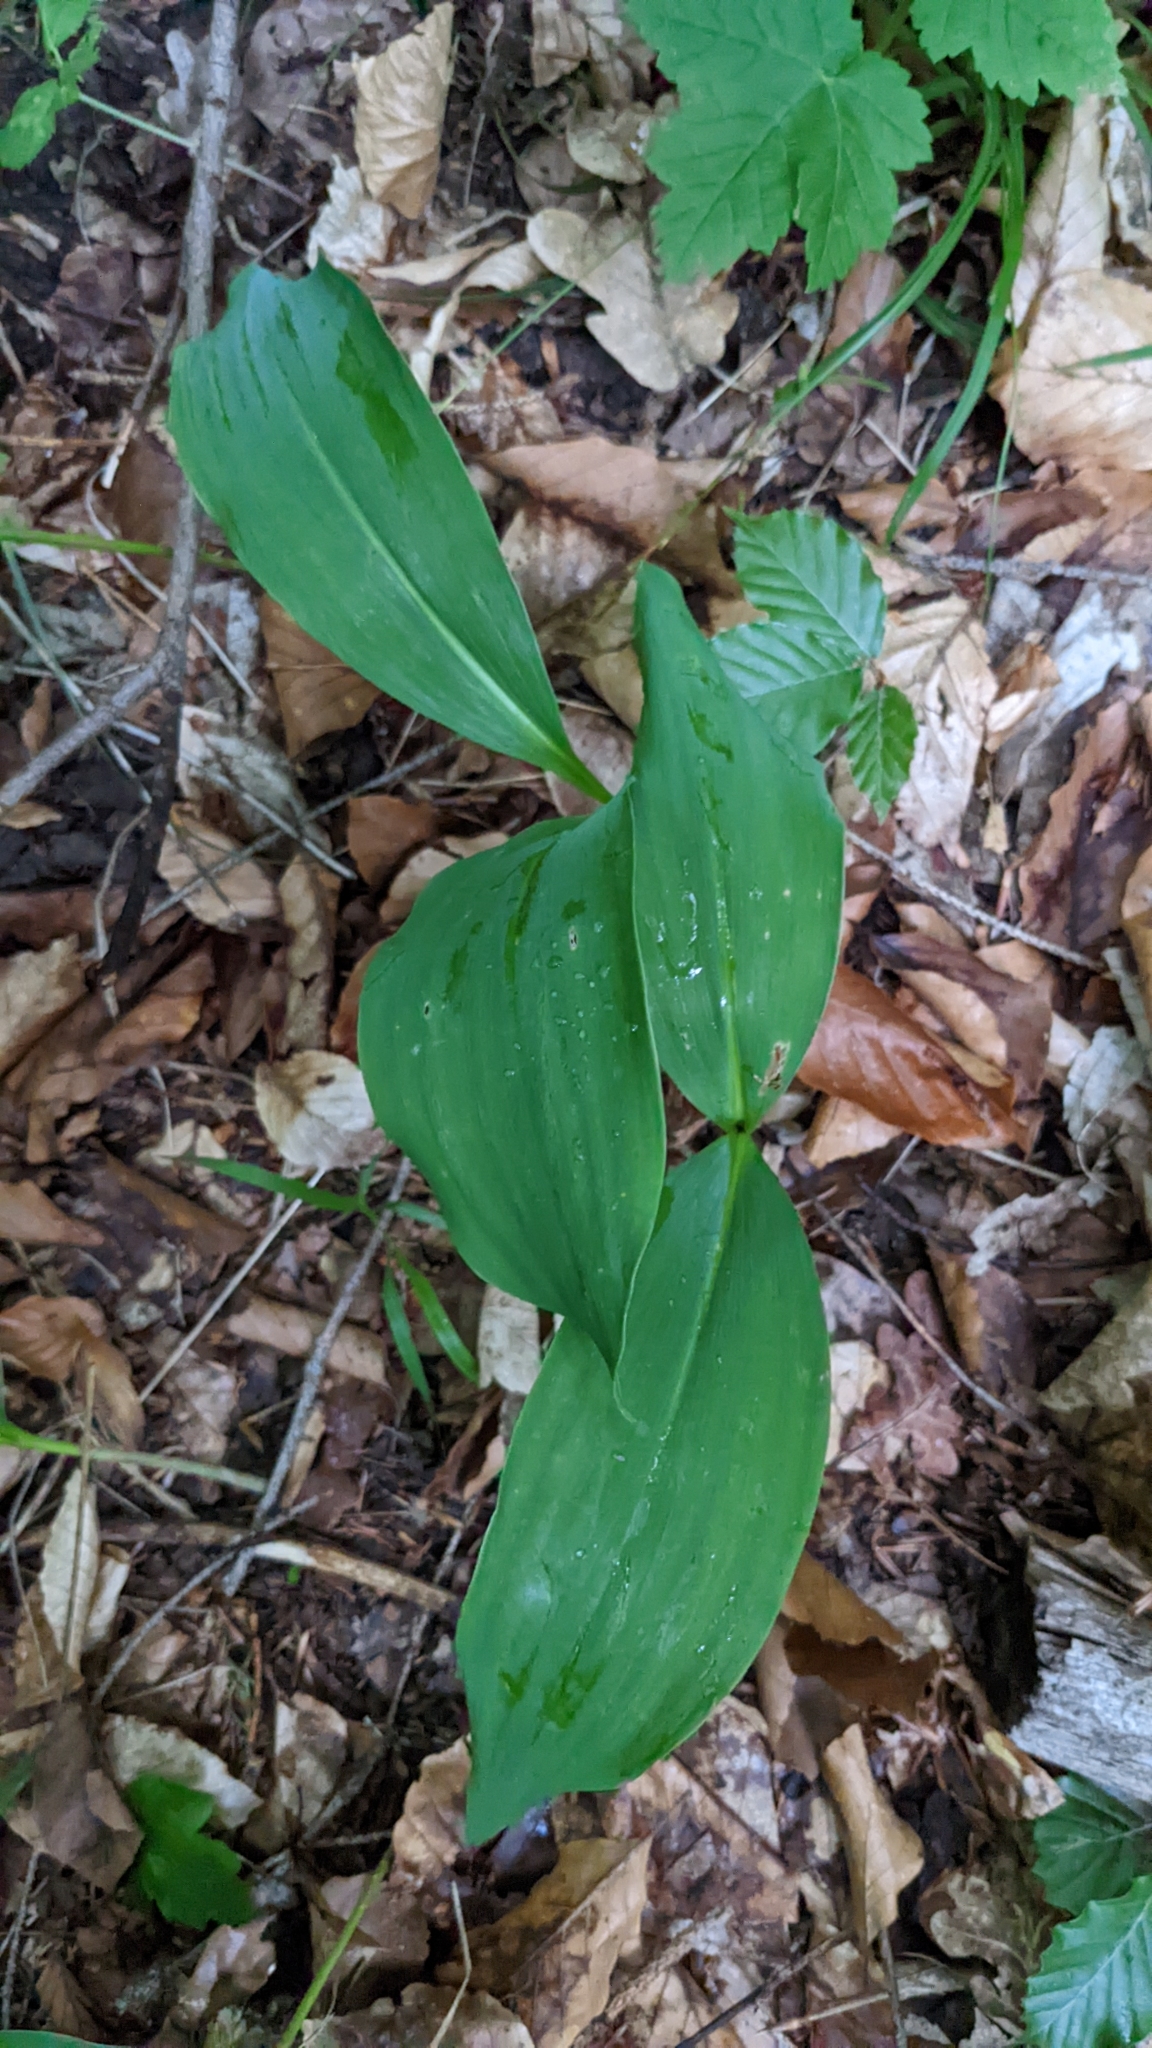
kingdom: Plantae
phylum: Tracheophyta
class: Liliopsida
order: Asparagales
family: Asparagaceae
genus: Convallaria
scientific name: Convallaria majalis
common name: Lily-of-the-valley
